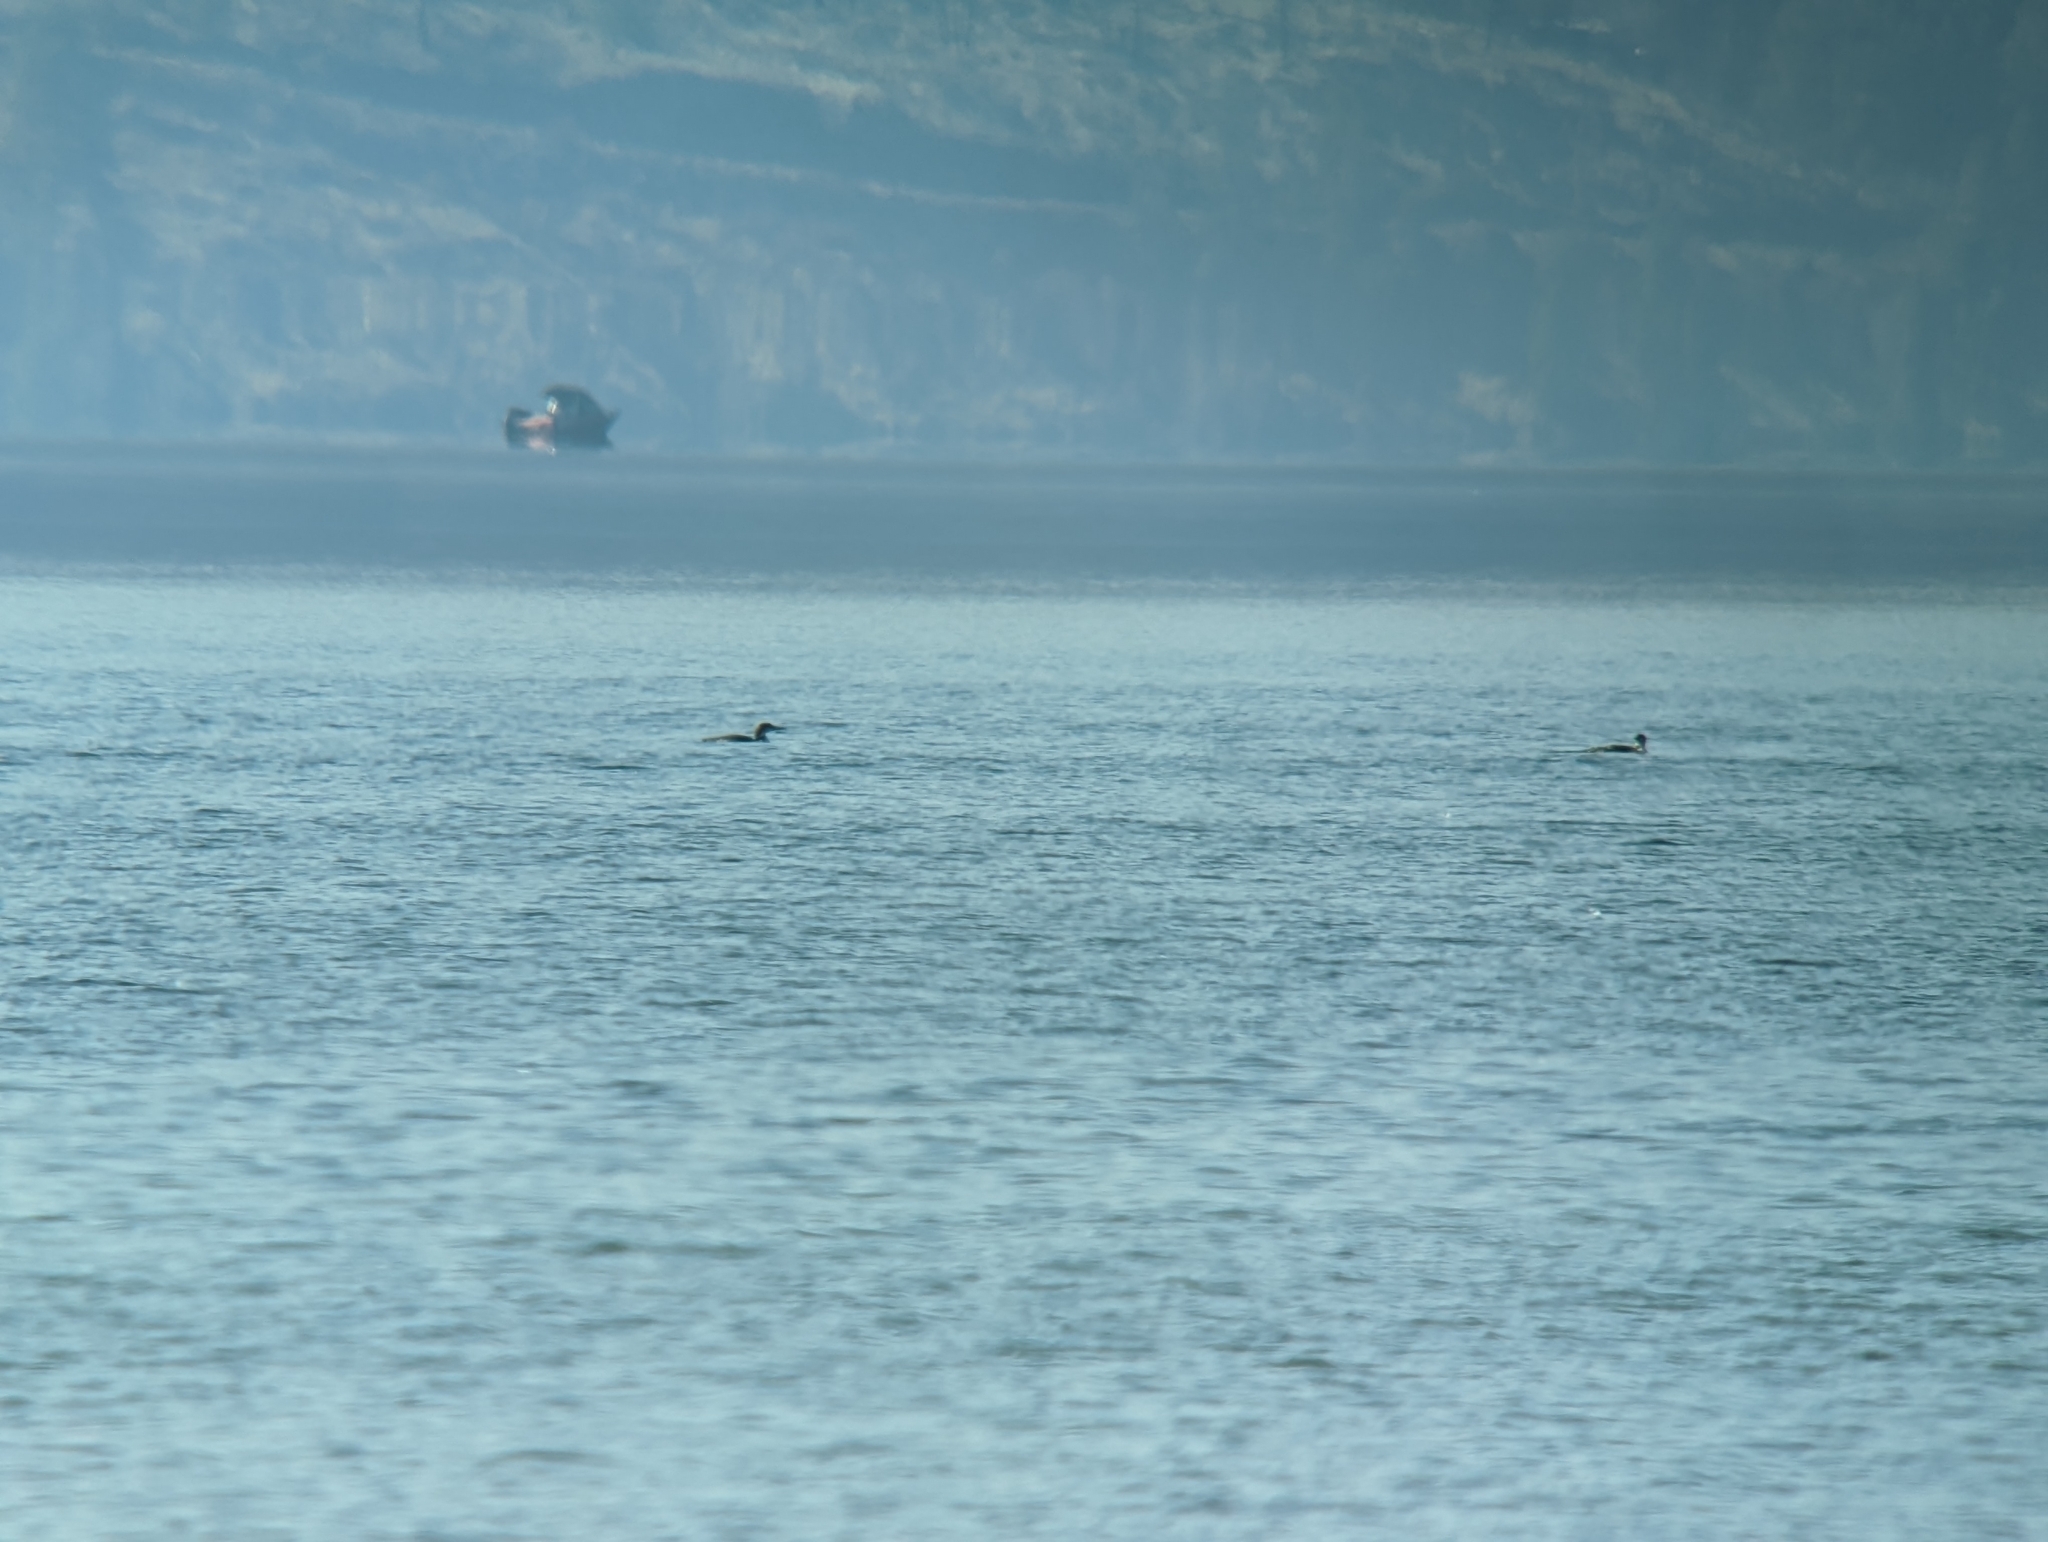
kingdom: Animalia
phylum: Chordata
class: Aves
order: Gaviiformes
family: Gaviidae
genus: Gavia
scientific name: Gavia immer
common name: Common loon
